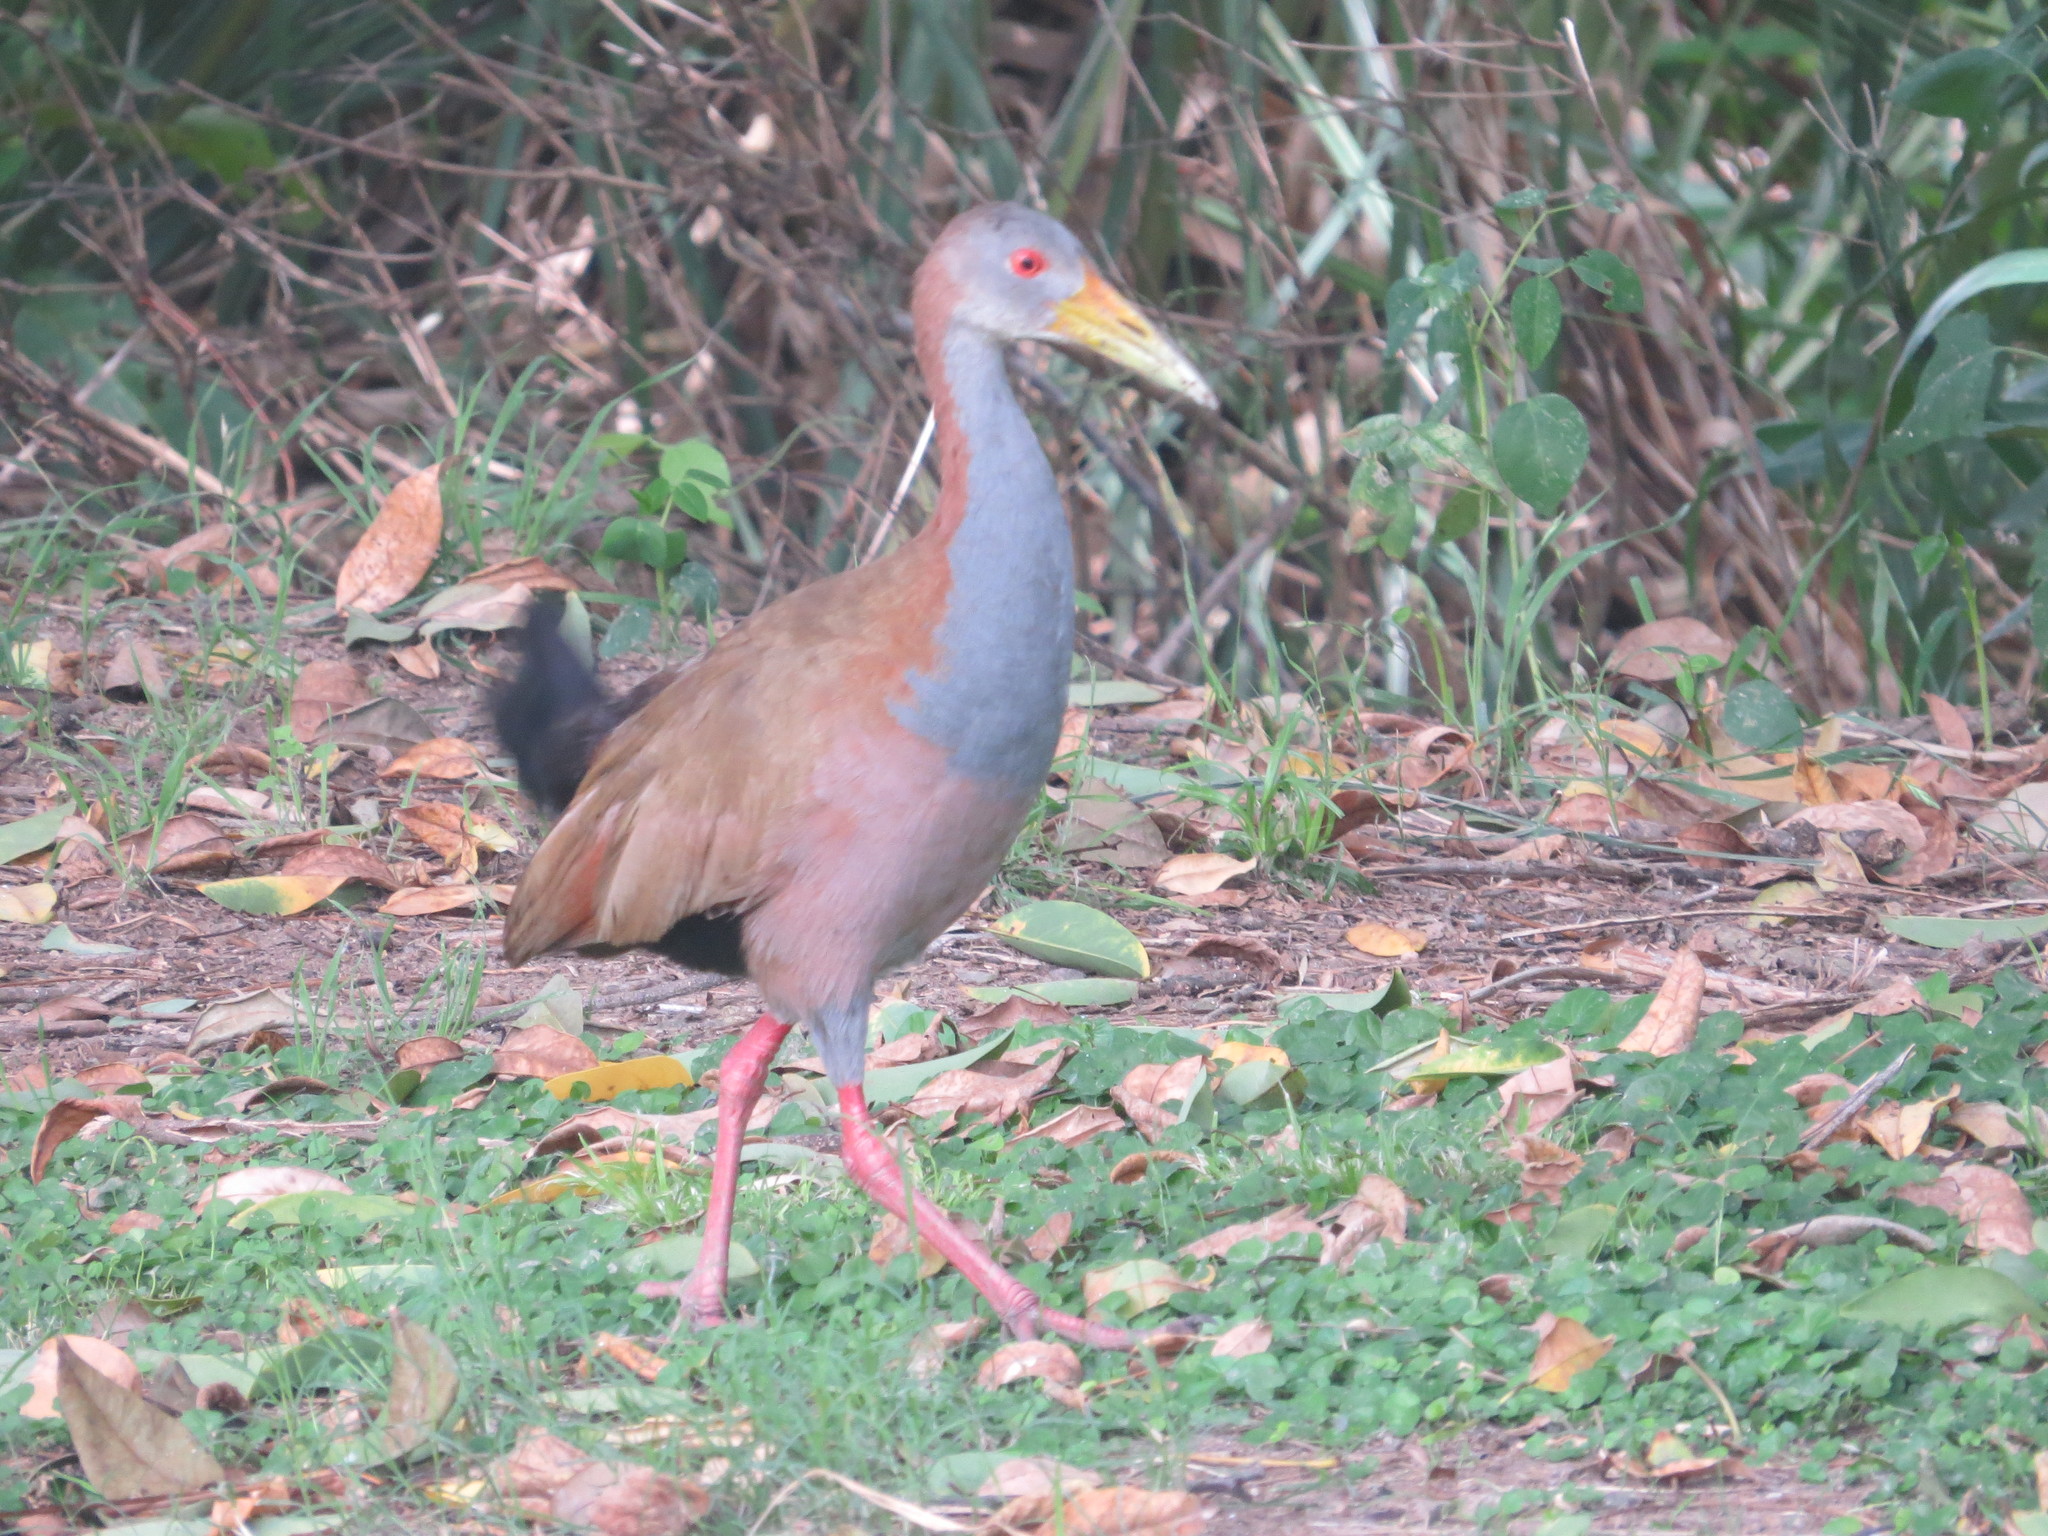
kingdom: Animalia
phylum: Chordata
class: Aves
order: Gruiformes
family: Rallidae
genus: Aramides
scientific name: Aramides ypecaha
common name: Giant wood rail
